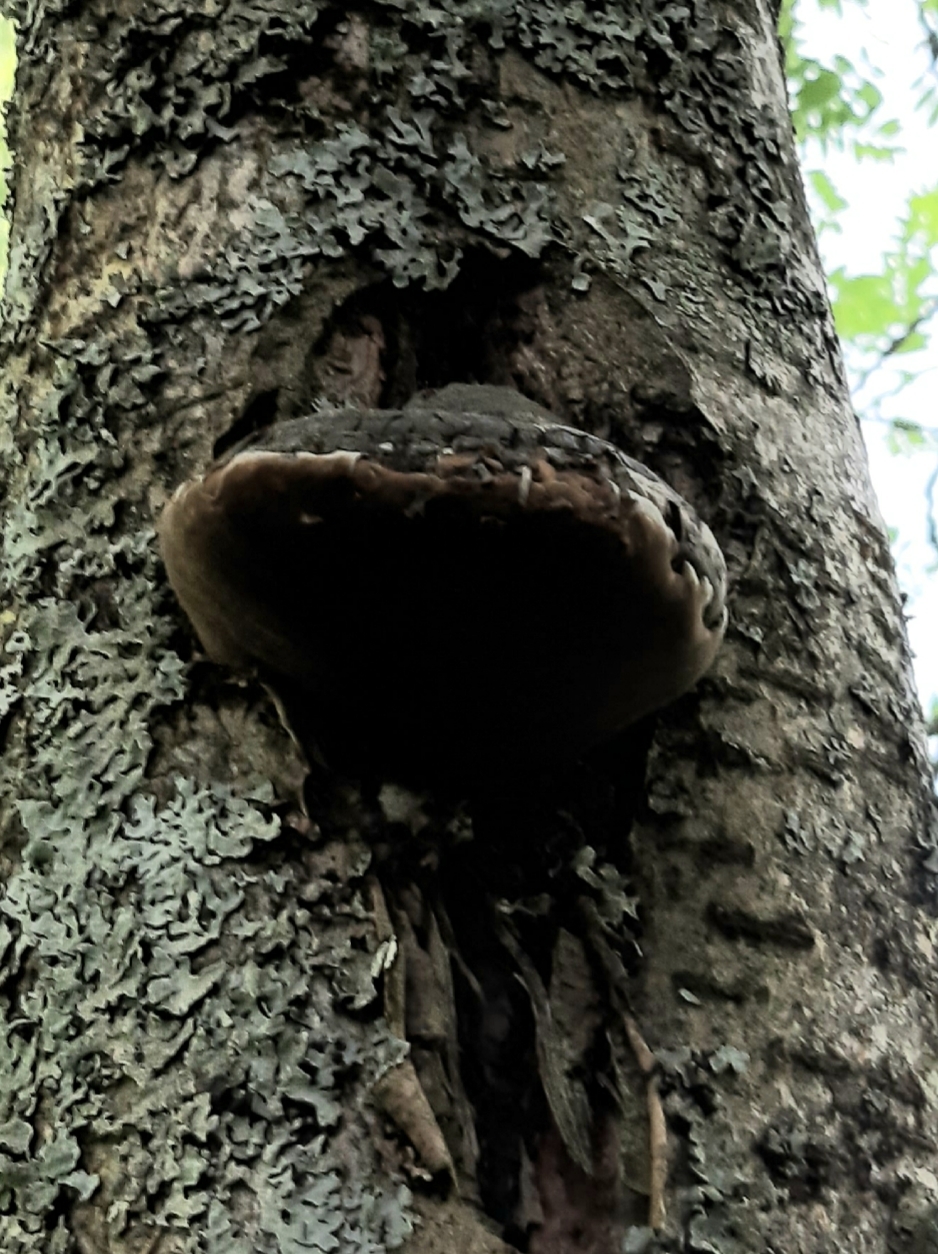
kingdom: Fungi
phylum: Basidiomycota
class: Agaricomycetes
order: Hymenochaetales
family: Hymenochaetaceae
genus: Phellinus
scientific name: Phellinus igniarius
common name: Willow bracket
